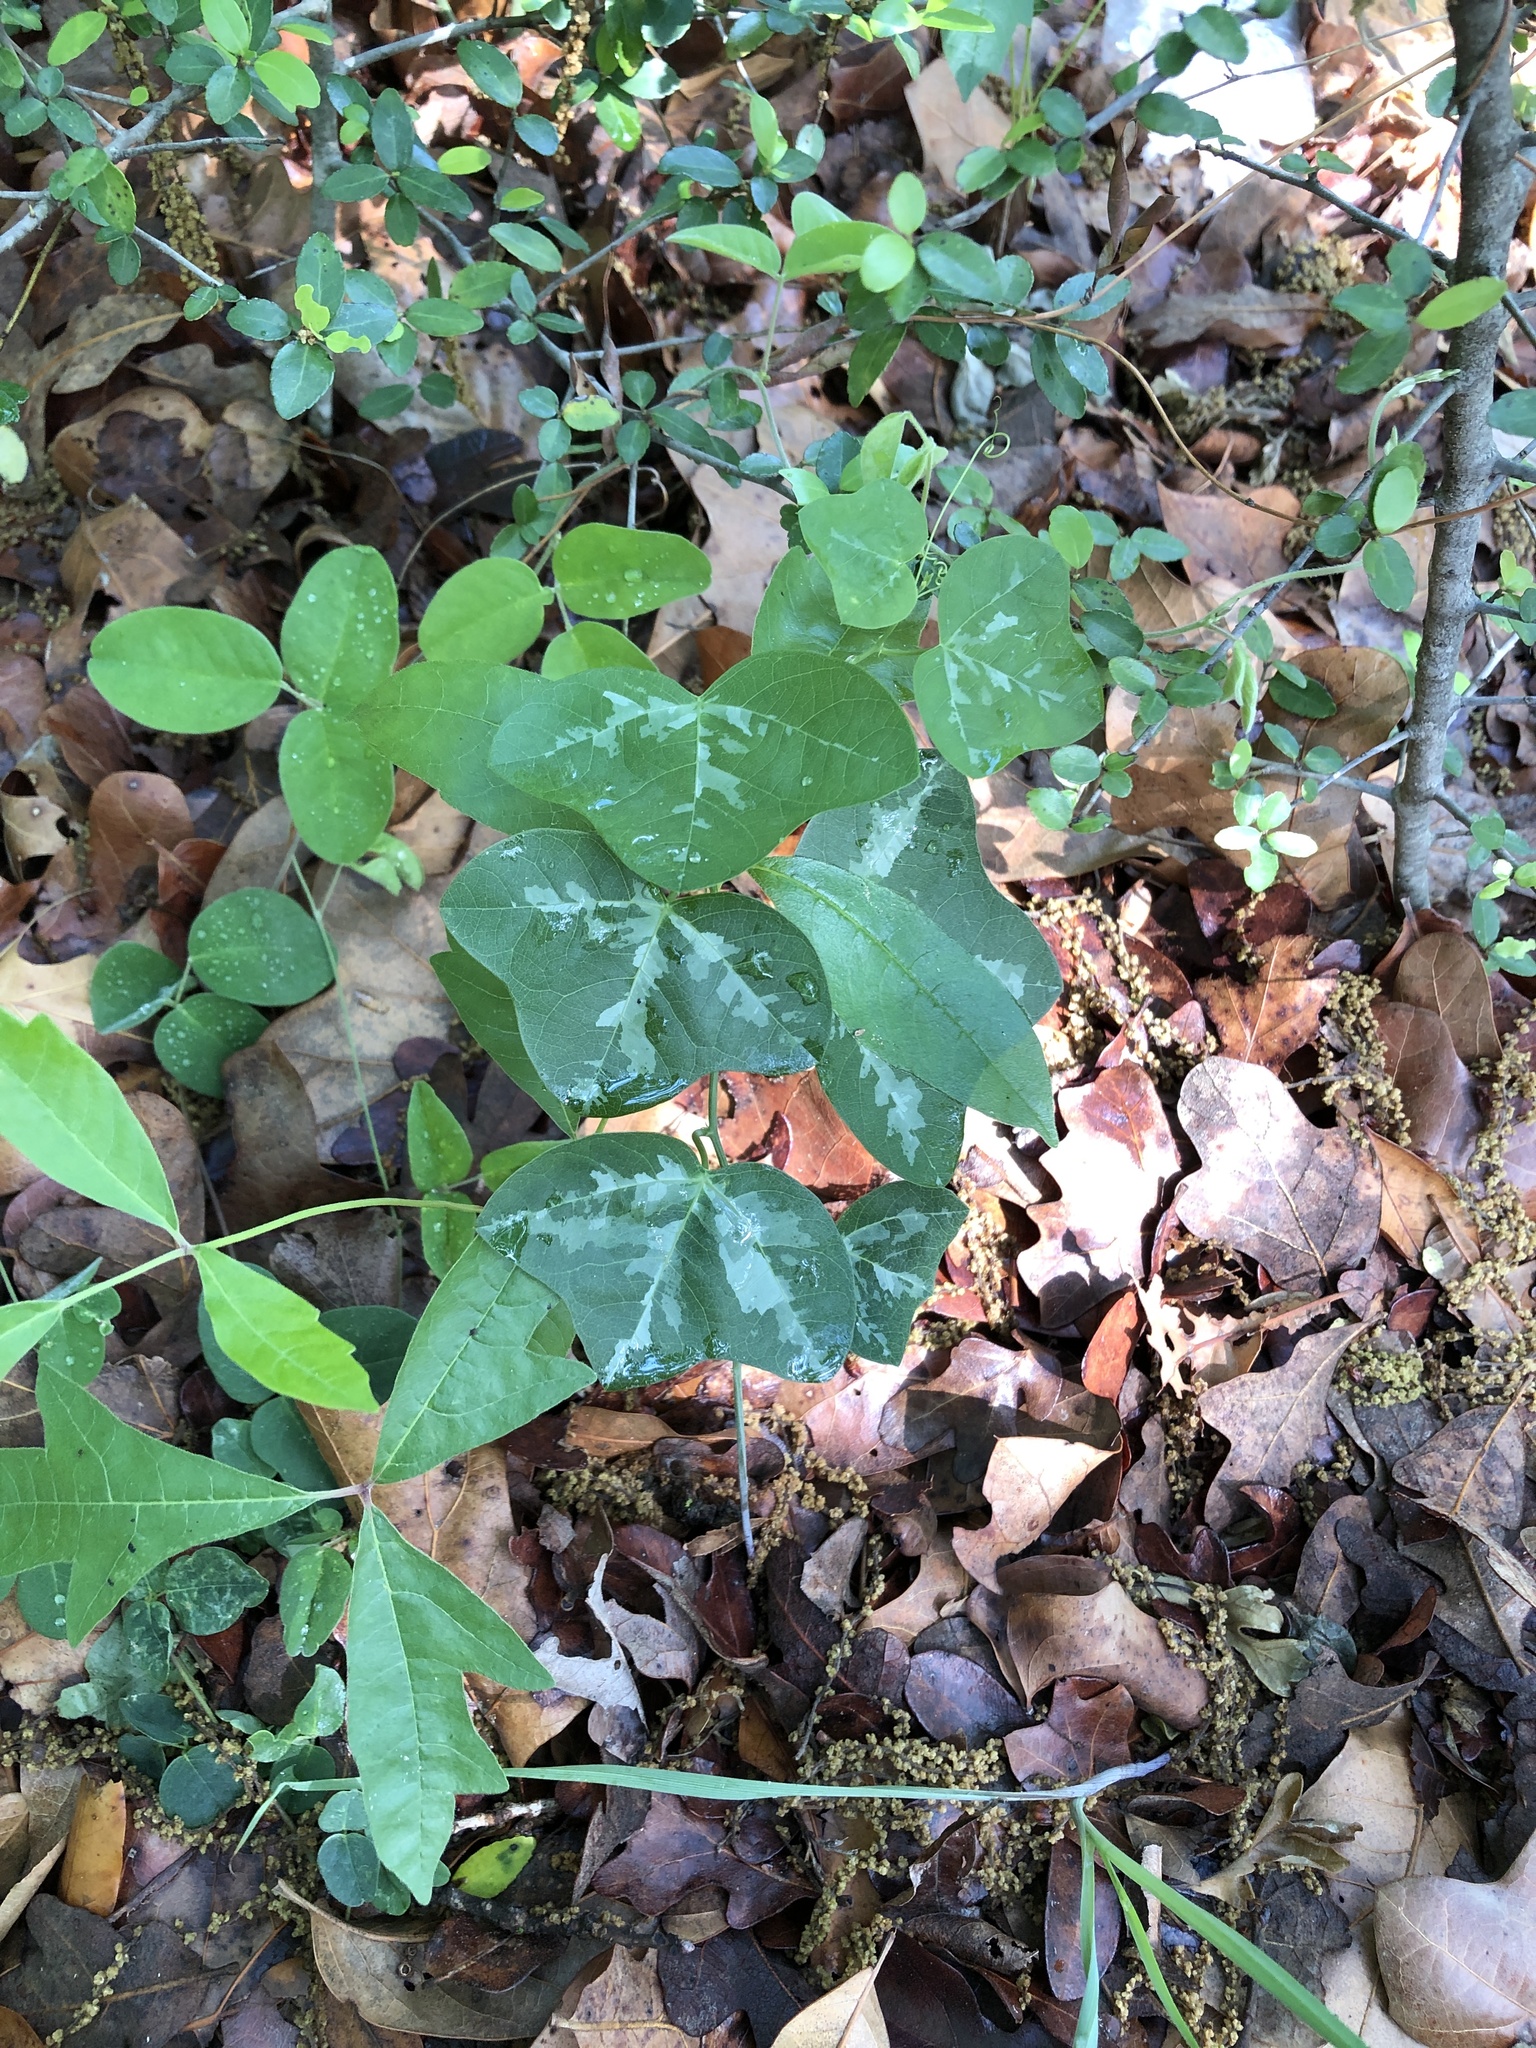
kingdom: Plantae
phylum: Tracheophyta
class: Magnoliopsida
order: Malpighiales
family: Passifloraceae
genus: Passiflora
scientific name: Passiflora lutea
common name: Yellow passionflower
